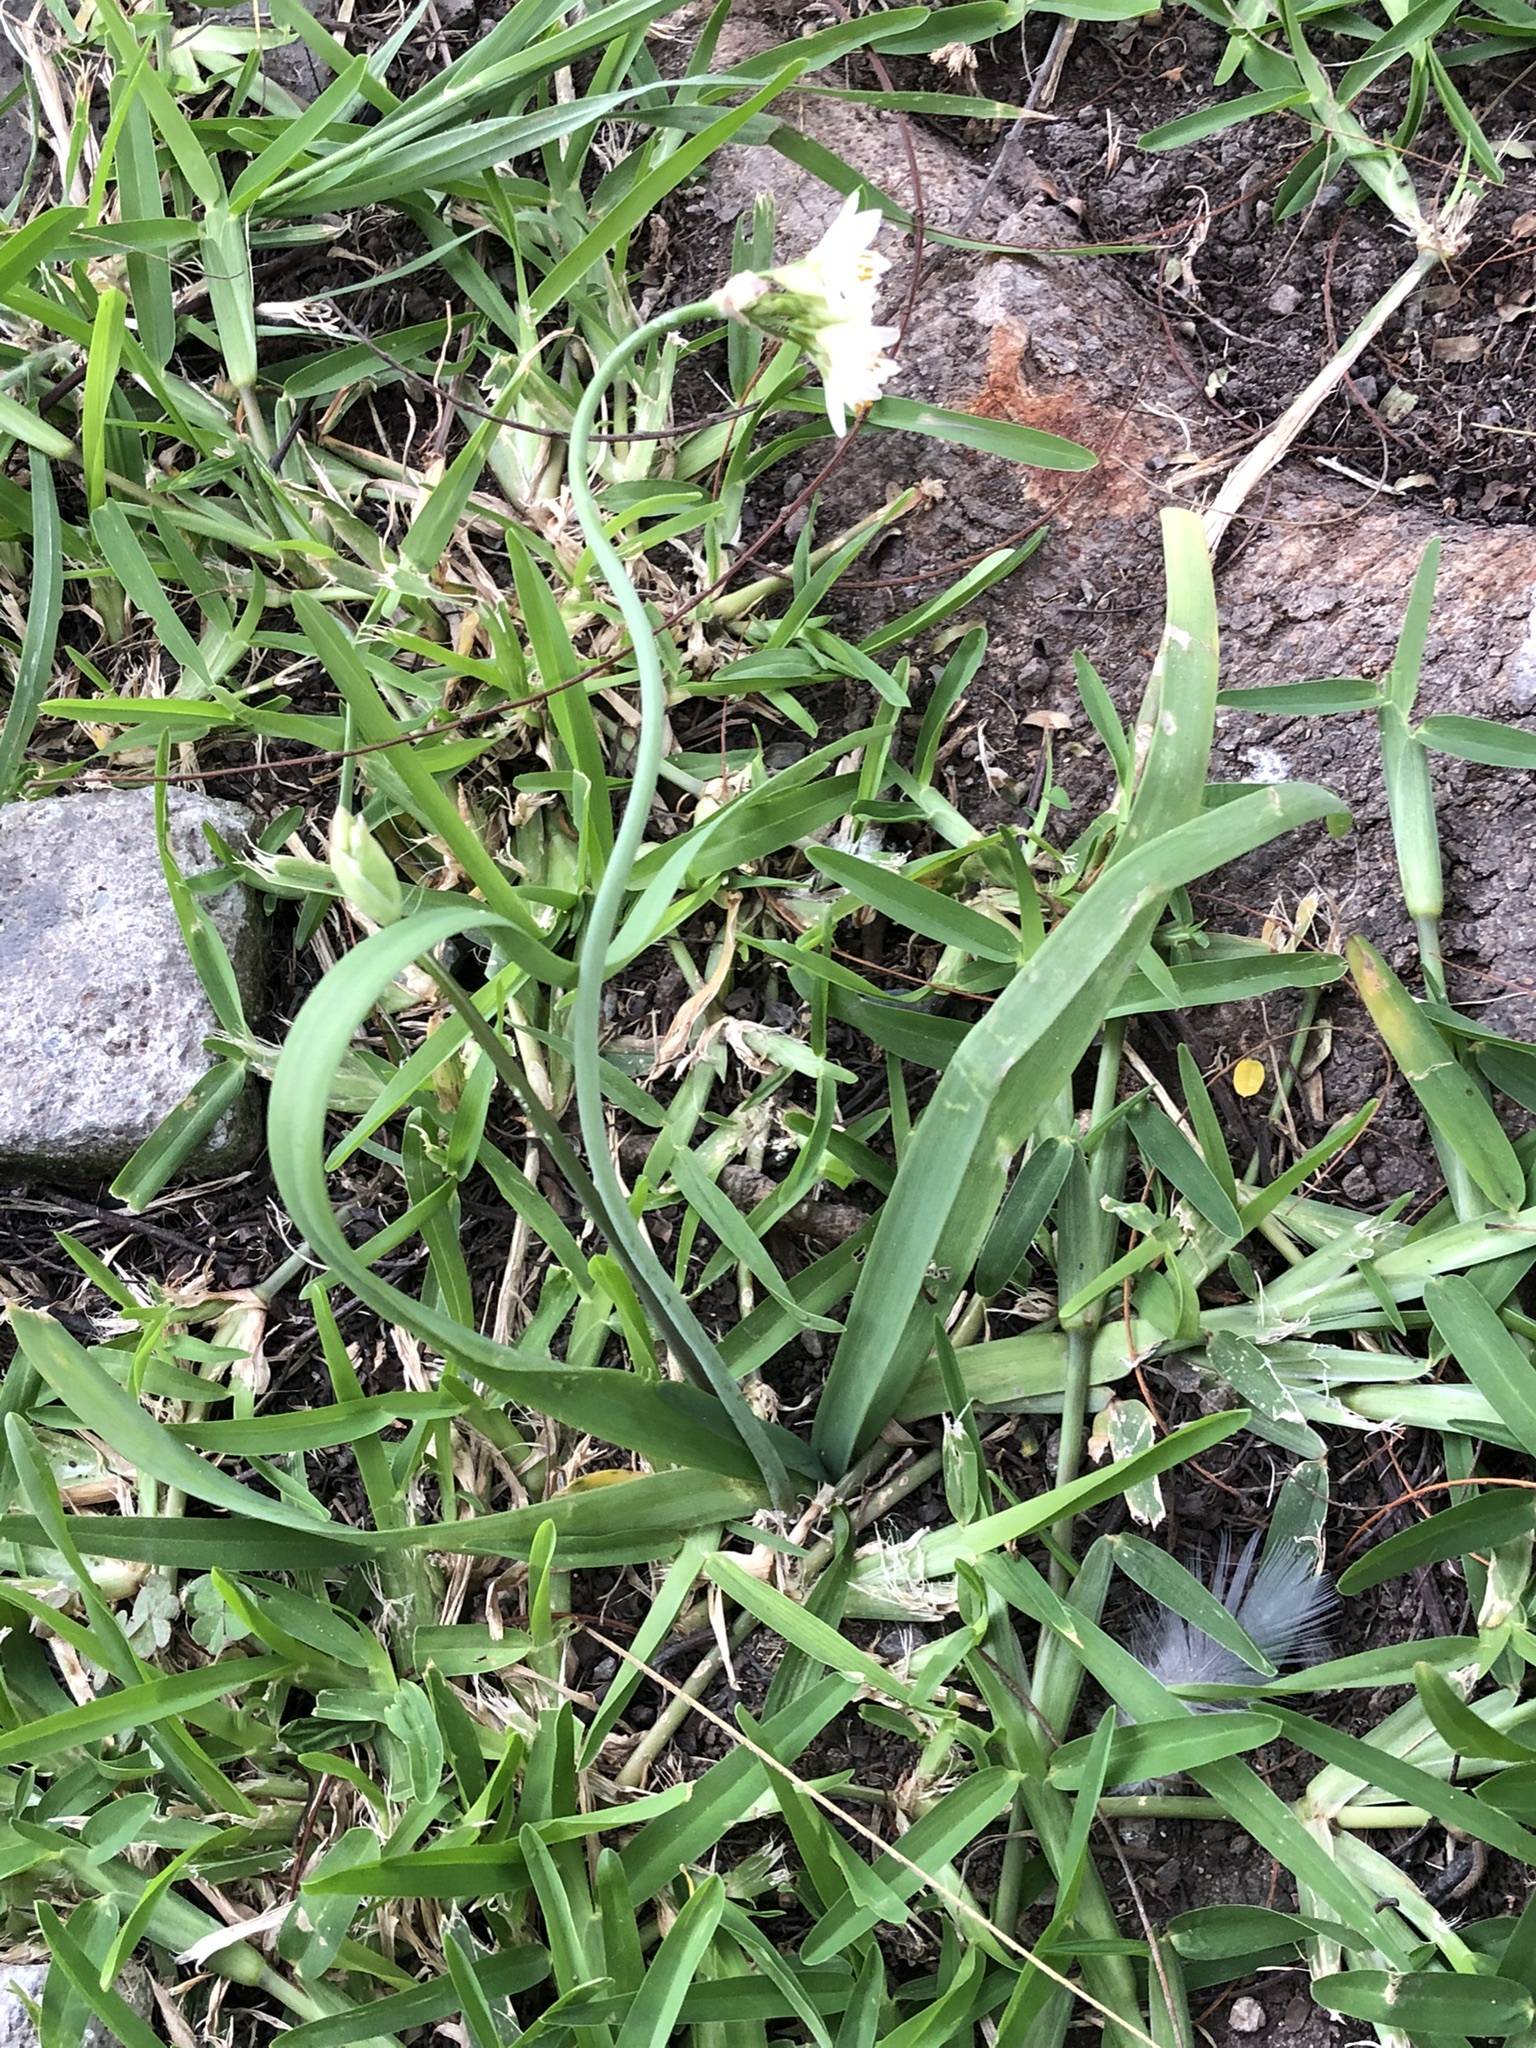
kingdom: Plantae
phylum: Tracheophyta
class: Liliopsida
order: Asparagales
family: Amaryllidaceae
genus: Nothoscordum
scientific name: Nothoscordum gracile
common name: Slender false garlic
